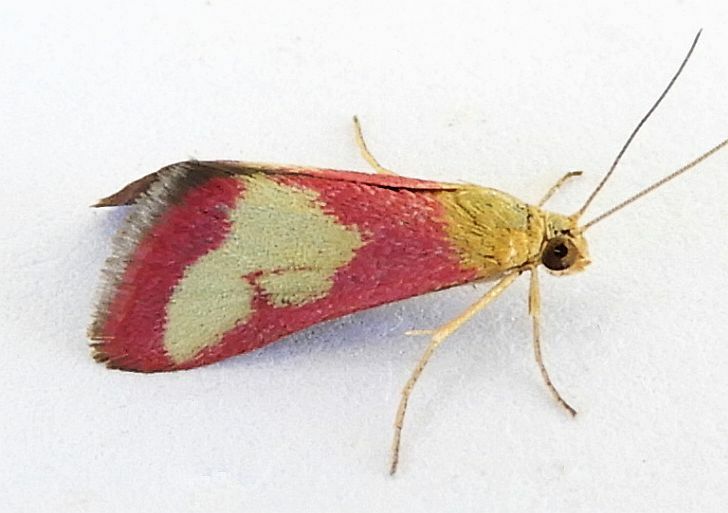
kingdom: Animalia
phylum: Arthropoda
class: Insecta
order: Lepidoptera
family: Crambidae
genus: Mojavia
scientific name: Mojavia achemonalis
